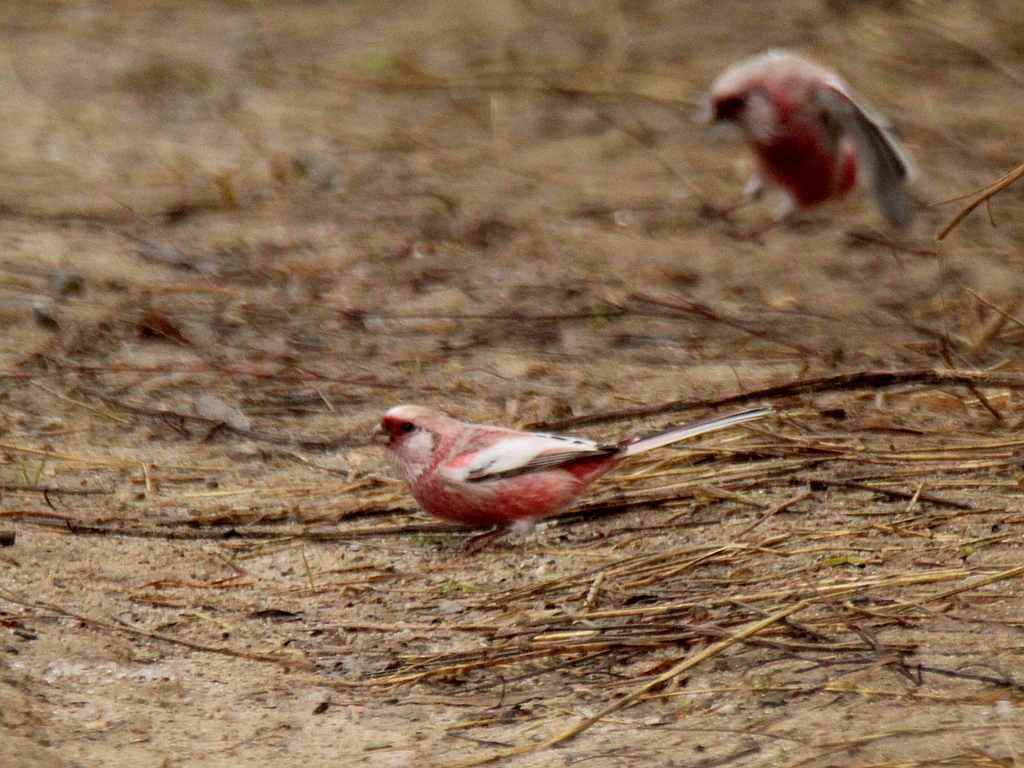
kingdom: Animalia
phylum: Chordata
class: Aves
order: Passeriformes
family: Fringillidae
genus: Carpodacus
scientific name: Carpodacus sibiricus
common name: Long-tailed rosefinch
